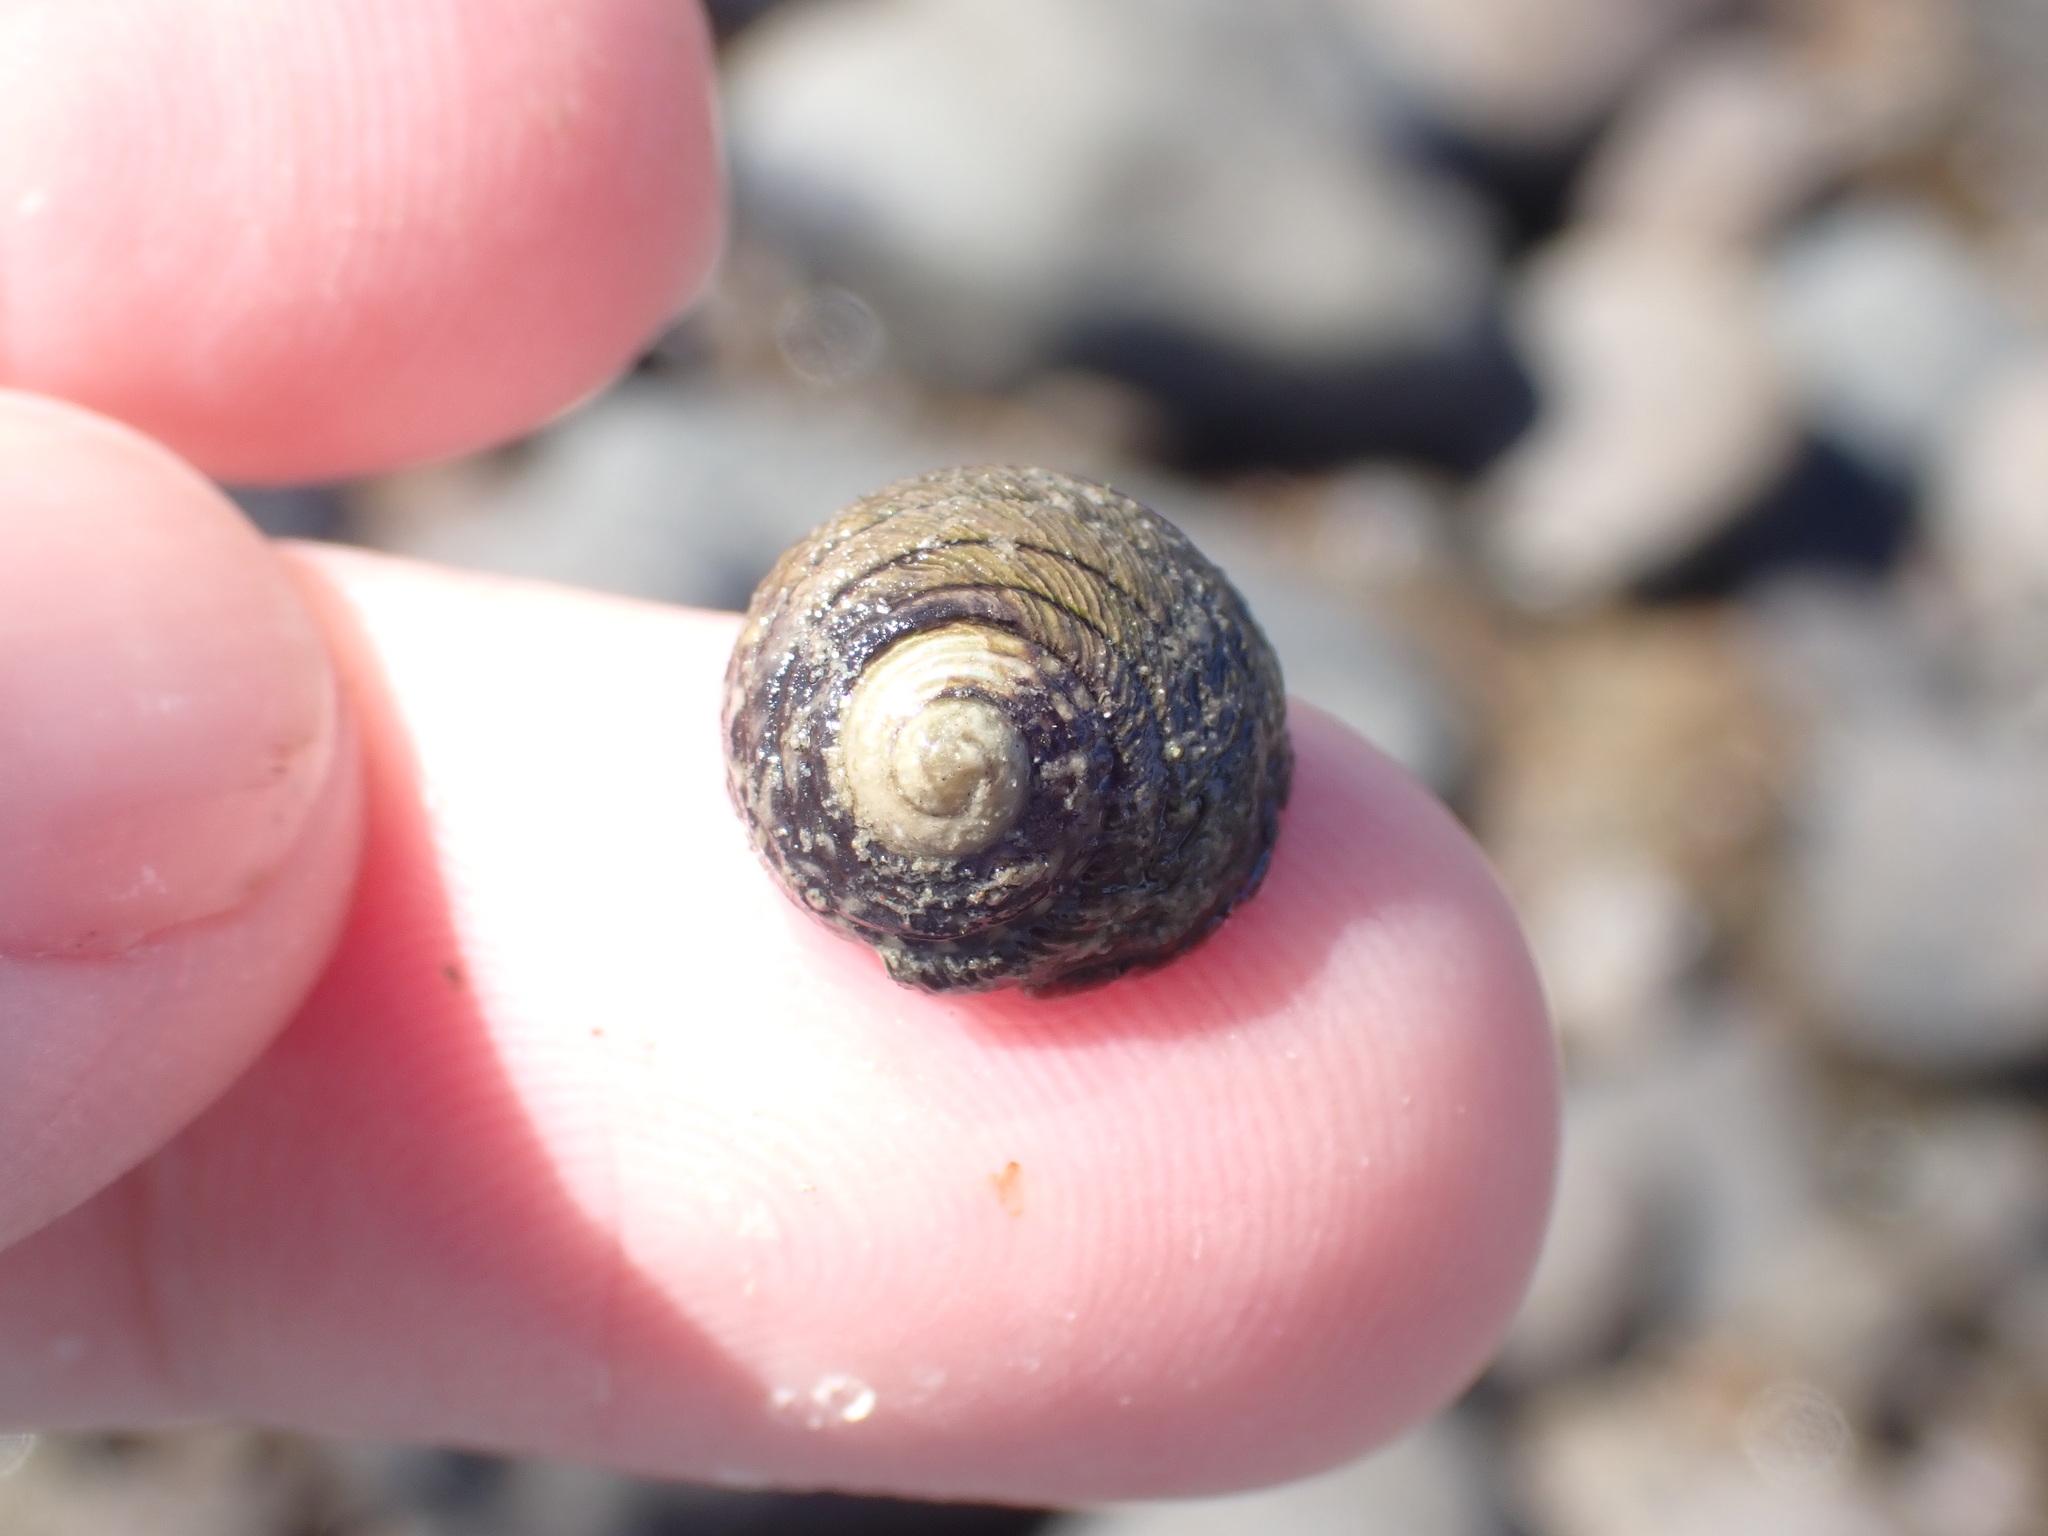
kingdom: Animalia
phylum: Mollusca
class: Gastropoda
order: Trochida
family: Trochidae
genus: Diloma
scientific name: Diloma aethiops
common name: Scorched monodont
